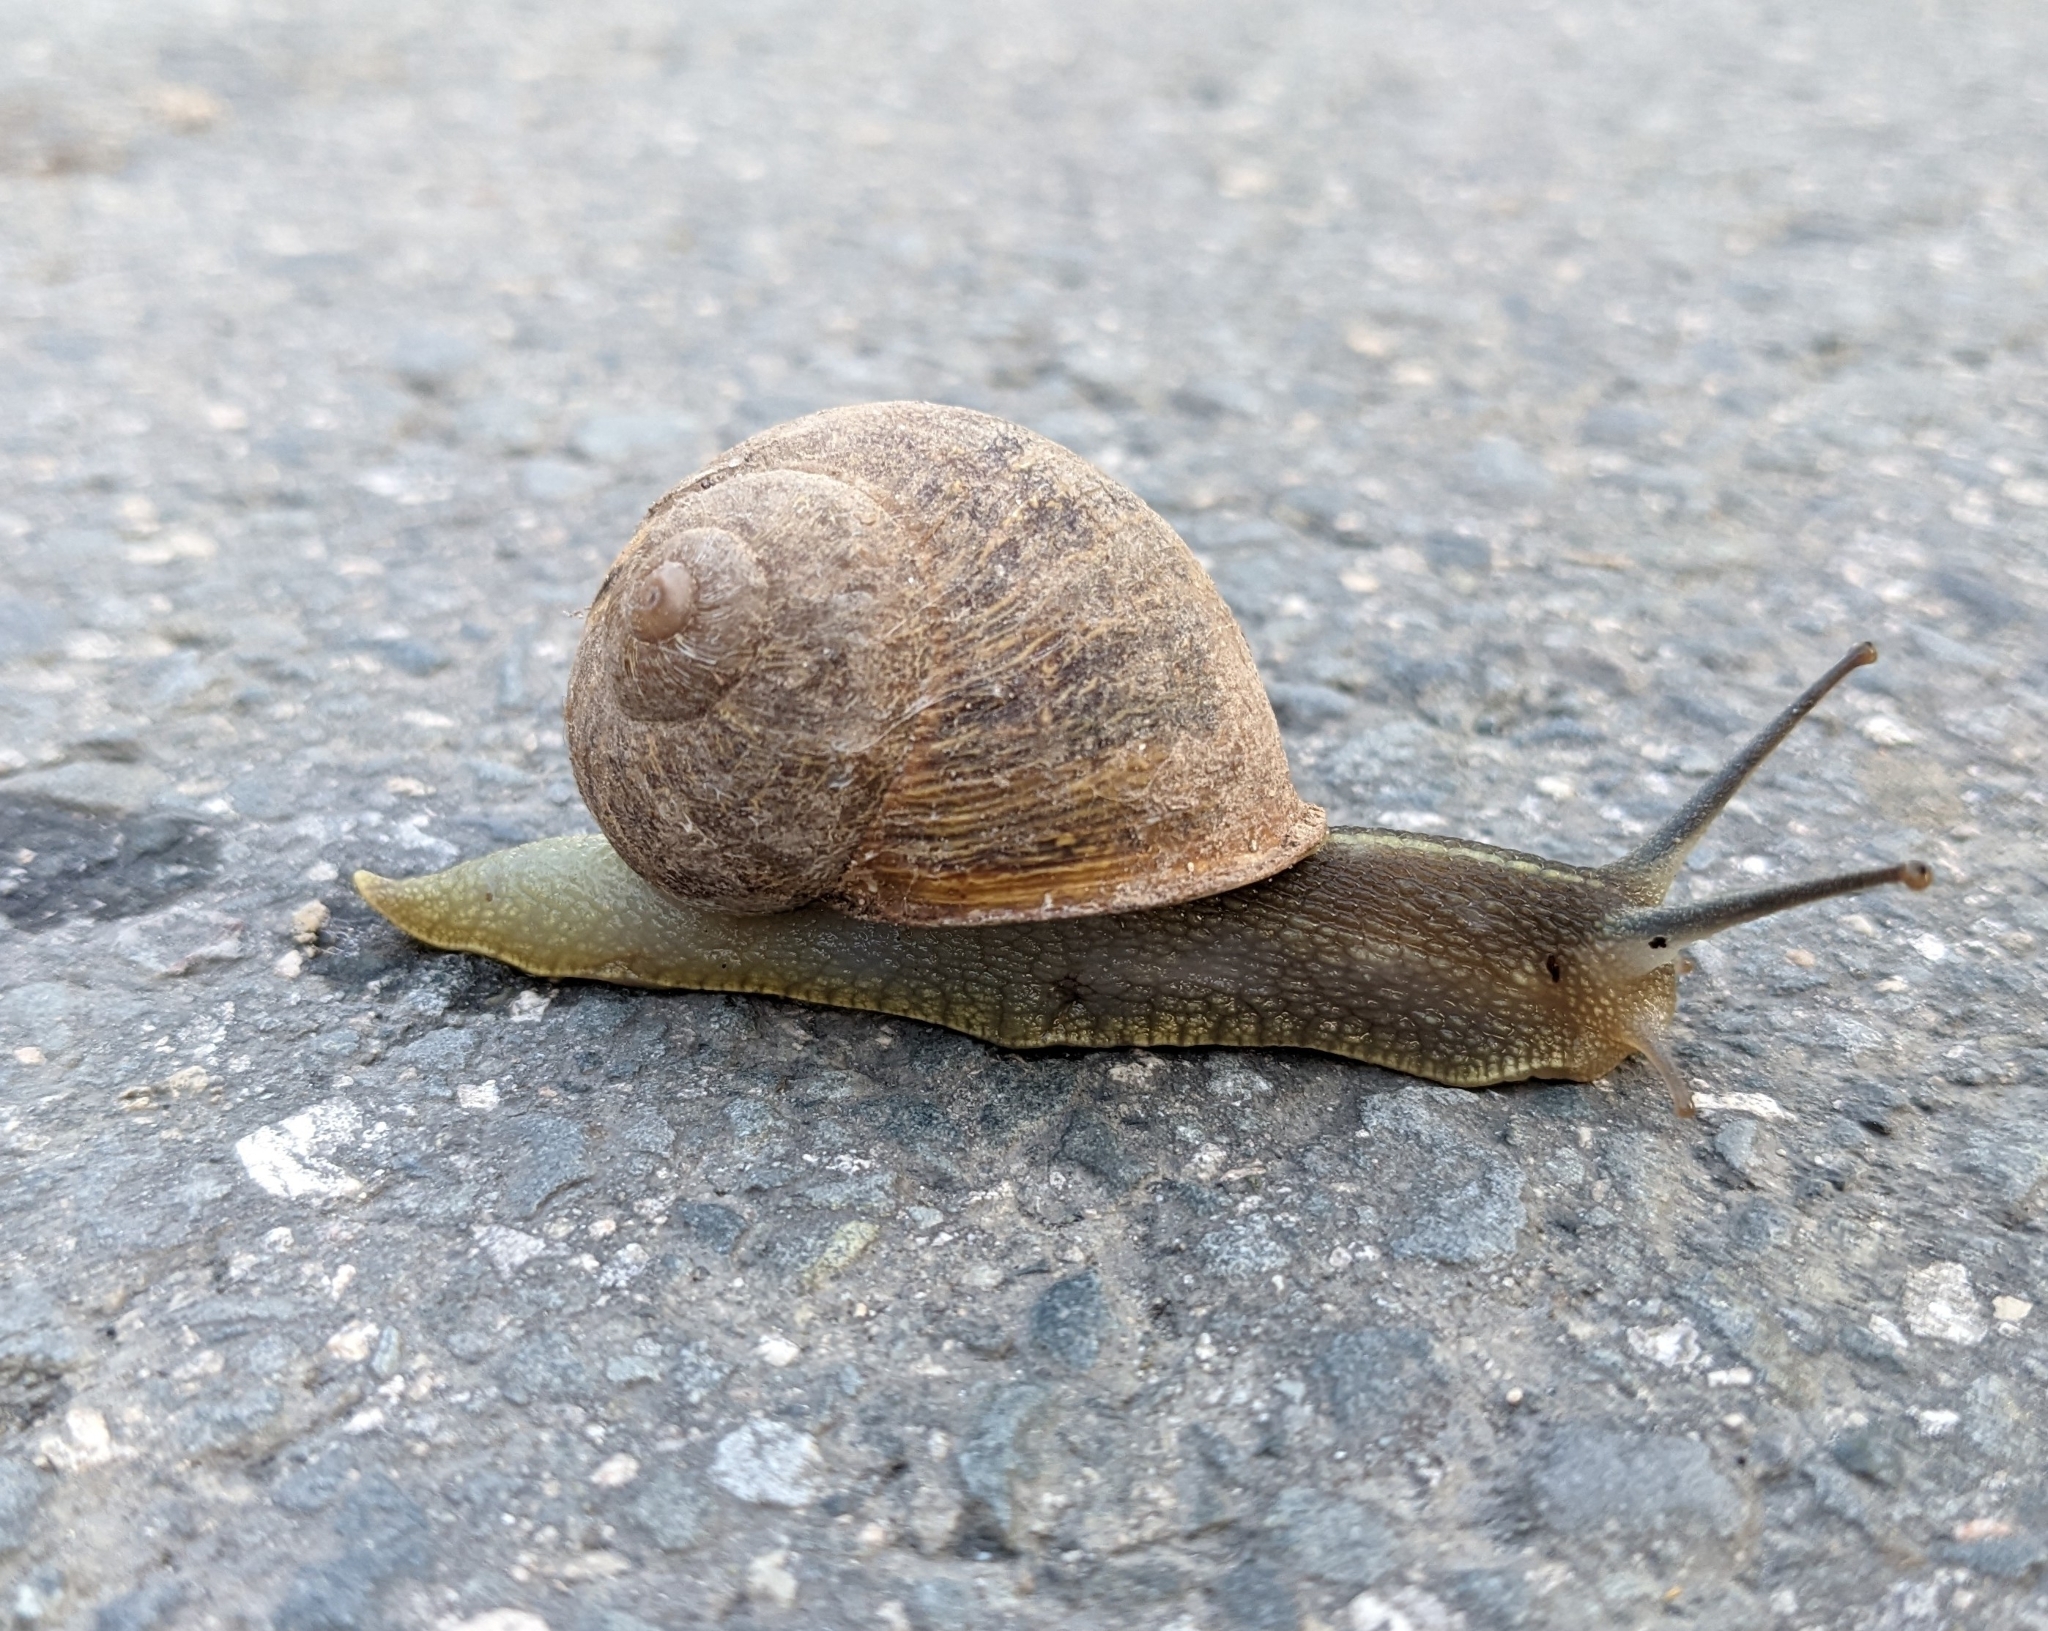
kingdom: Animalia
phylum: Mollusca
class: Gastropoda
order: Stylommatophora
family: Helicidae
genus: Cornu
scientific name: Cornu aspersum
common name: Brown garden snail
